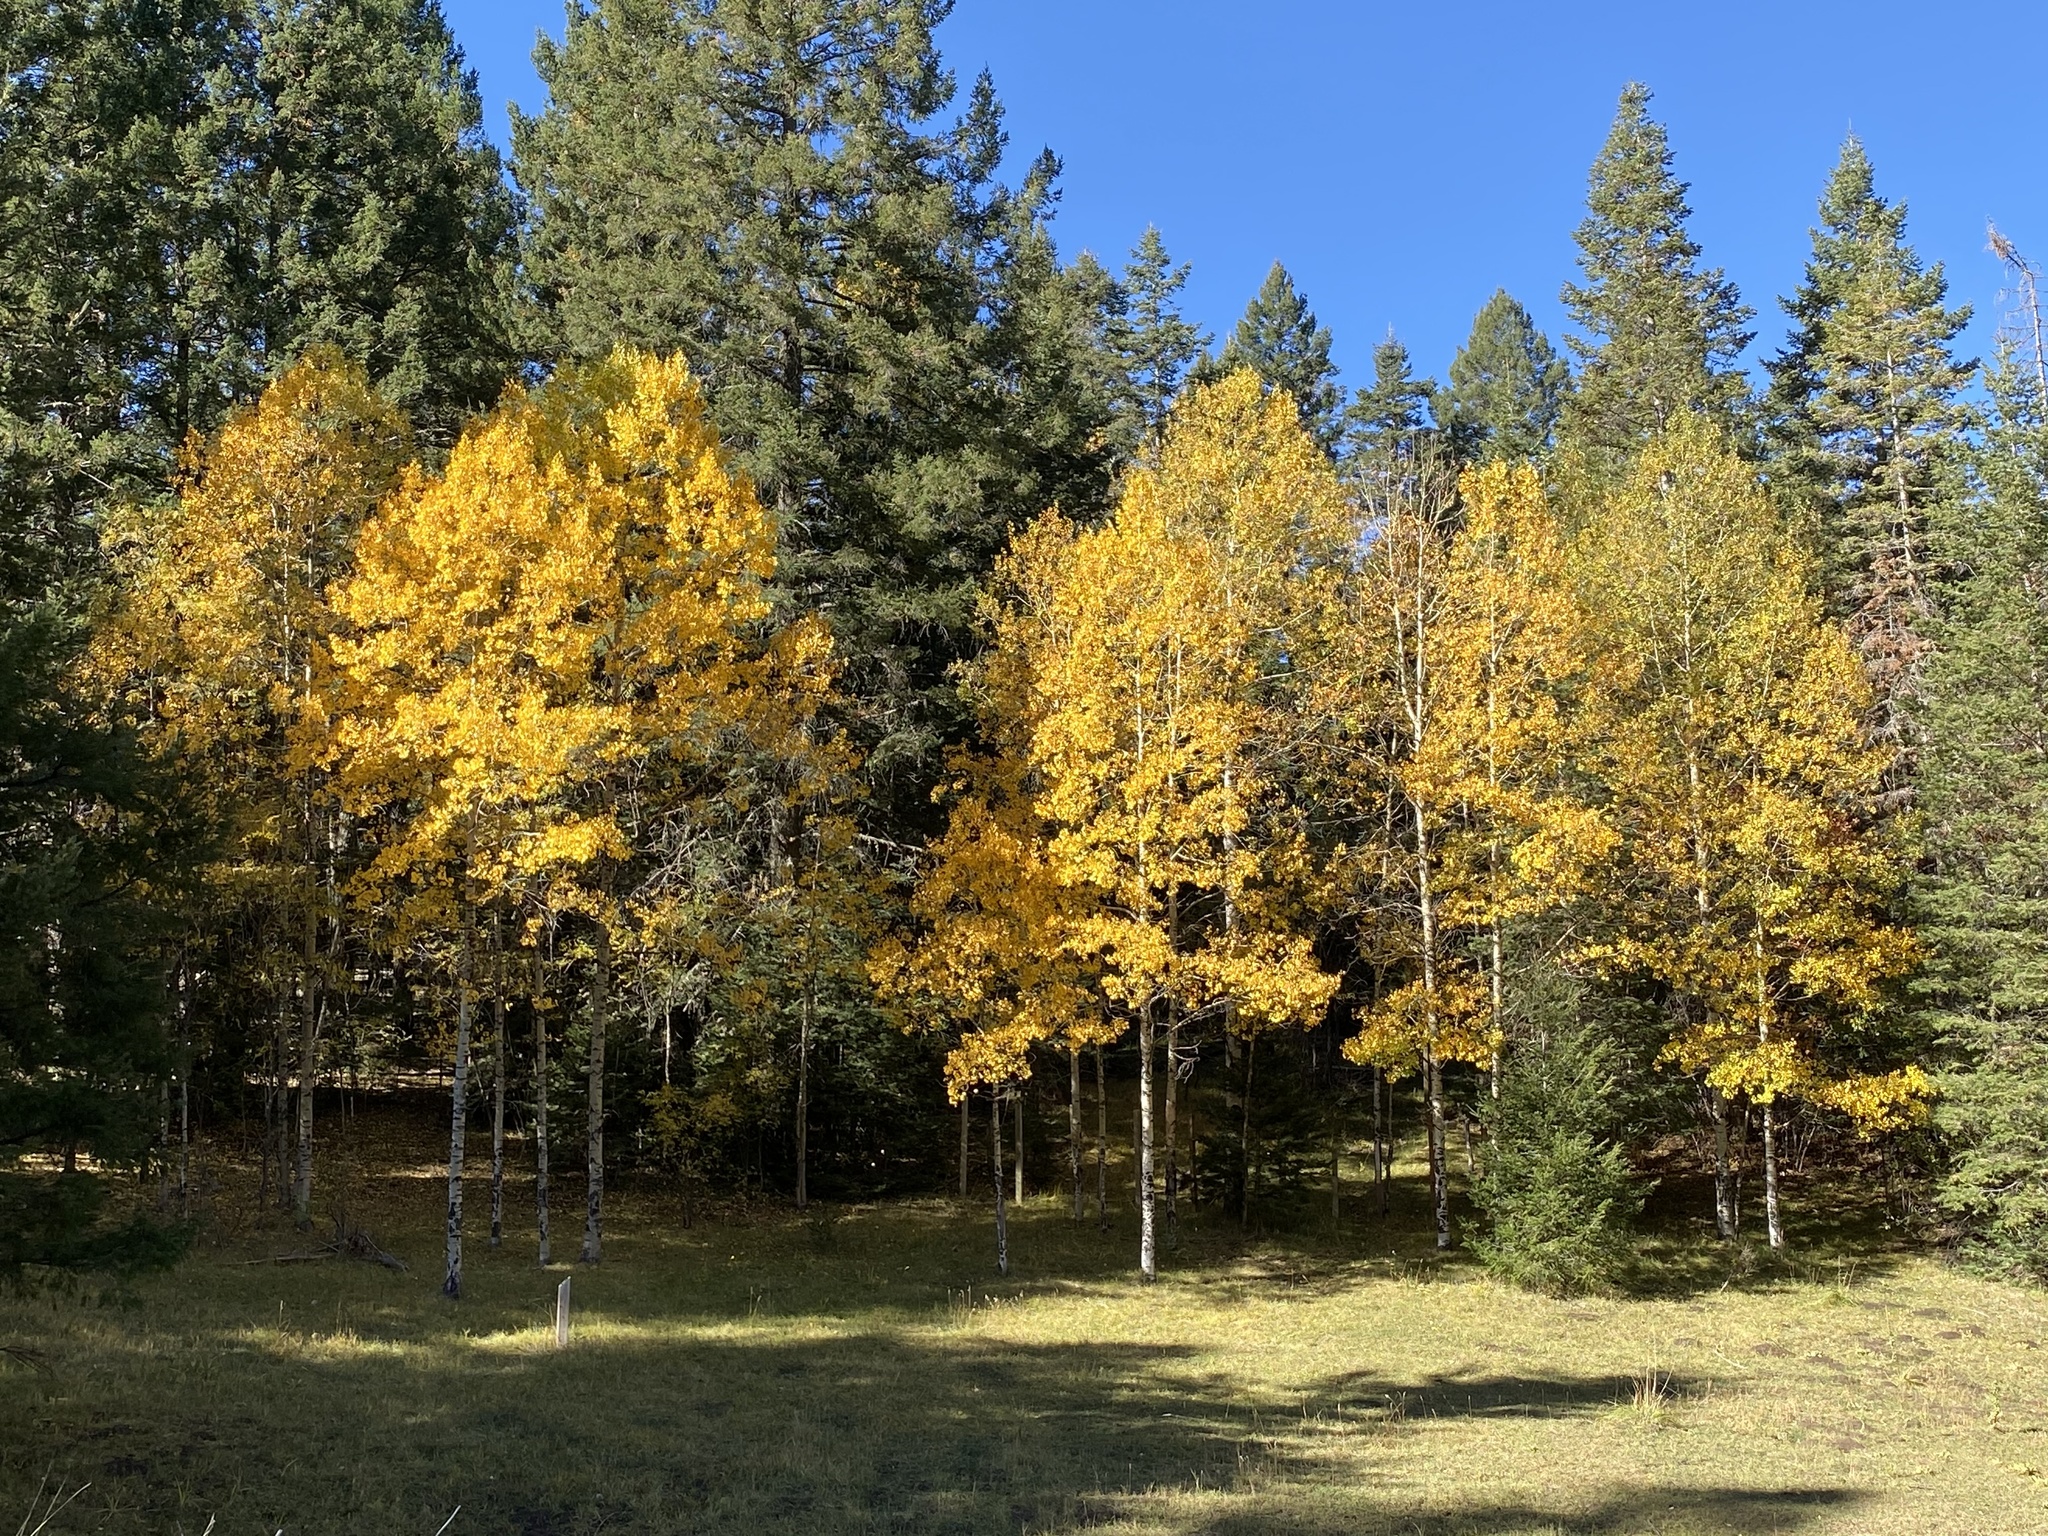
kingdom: Plantae
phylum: Tracheophyta
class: Magnoliopsida
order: Malpighiales
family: Salicaceae
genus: Populus
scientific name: Populus tremuloides
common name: Quaking aspen
